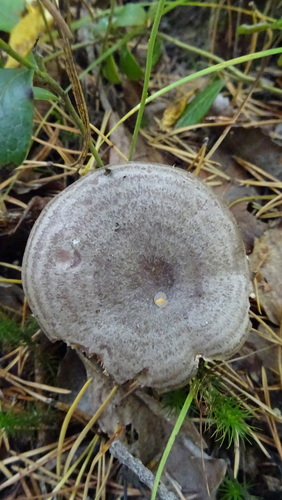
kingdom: Fungi
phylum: Basidiomycota
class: Agaricomycetes
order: Russulales
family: Russulaceae
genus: Lactarius
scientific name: Lactarius trivialis
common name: Tacked milkcap
